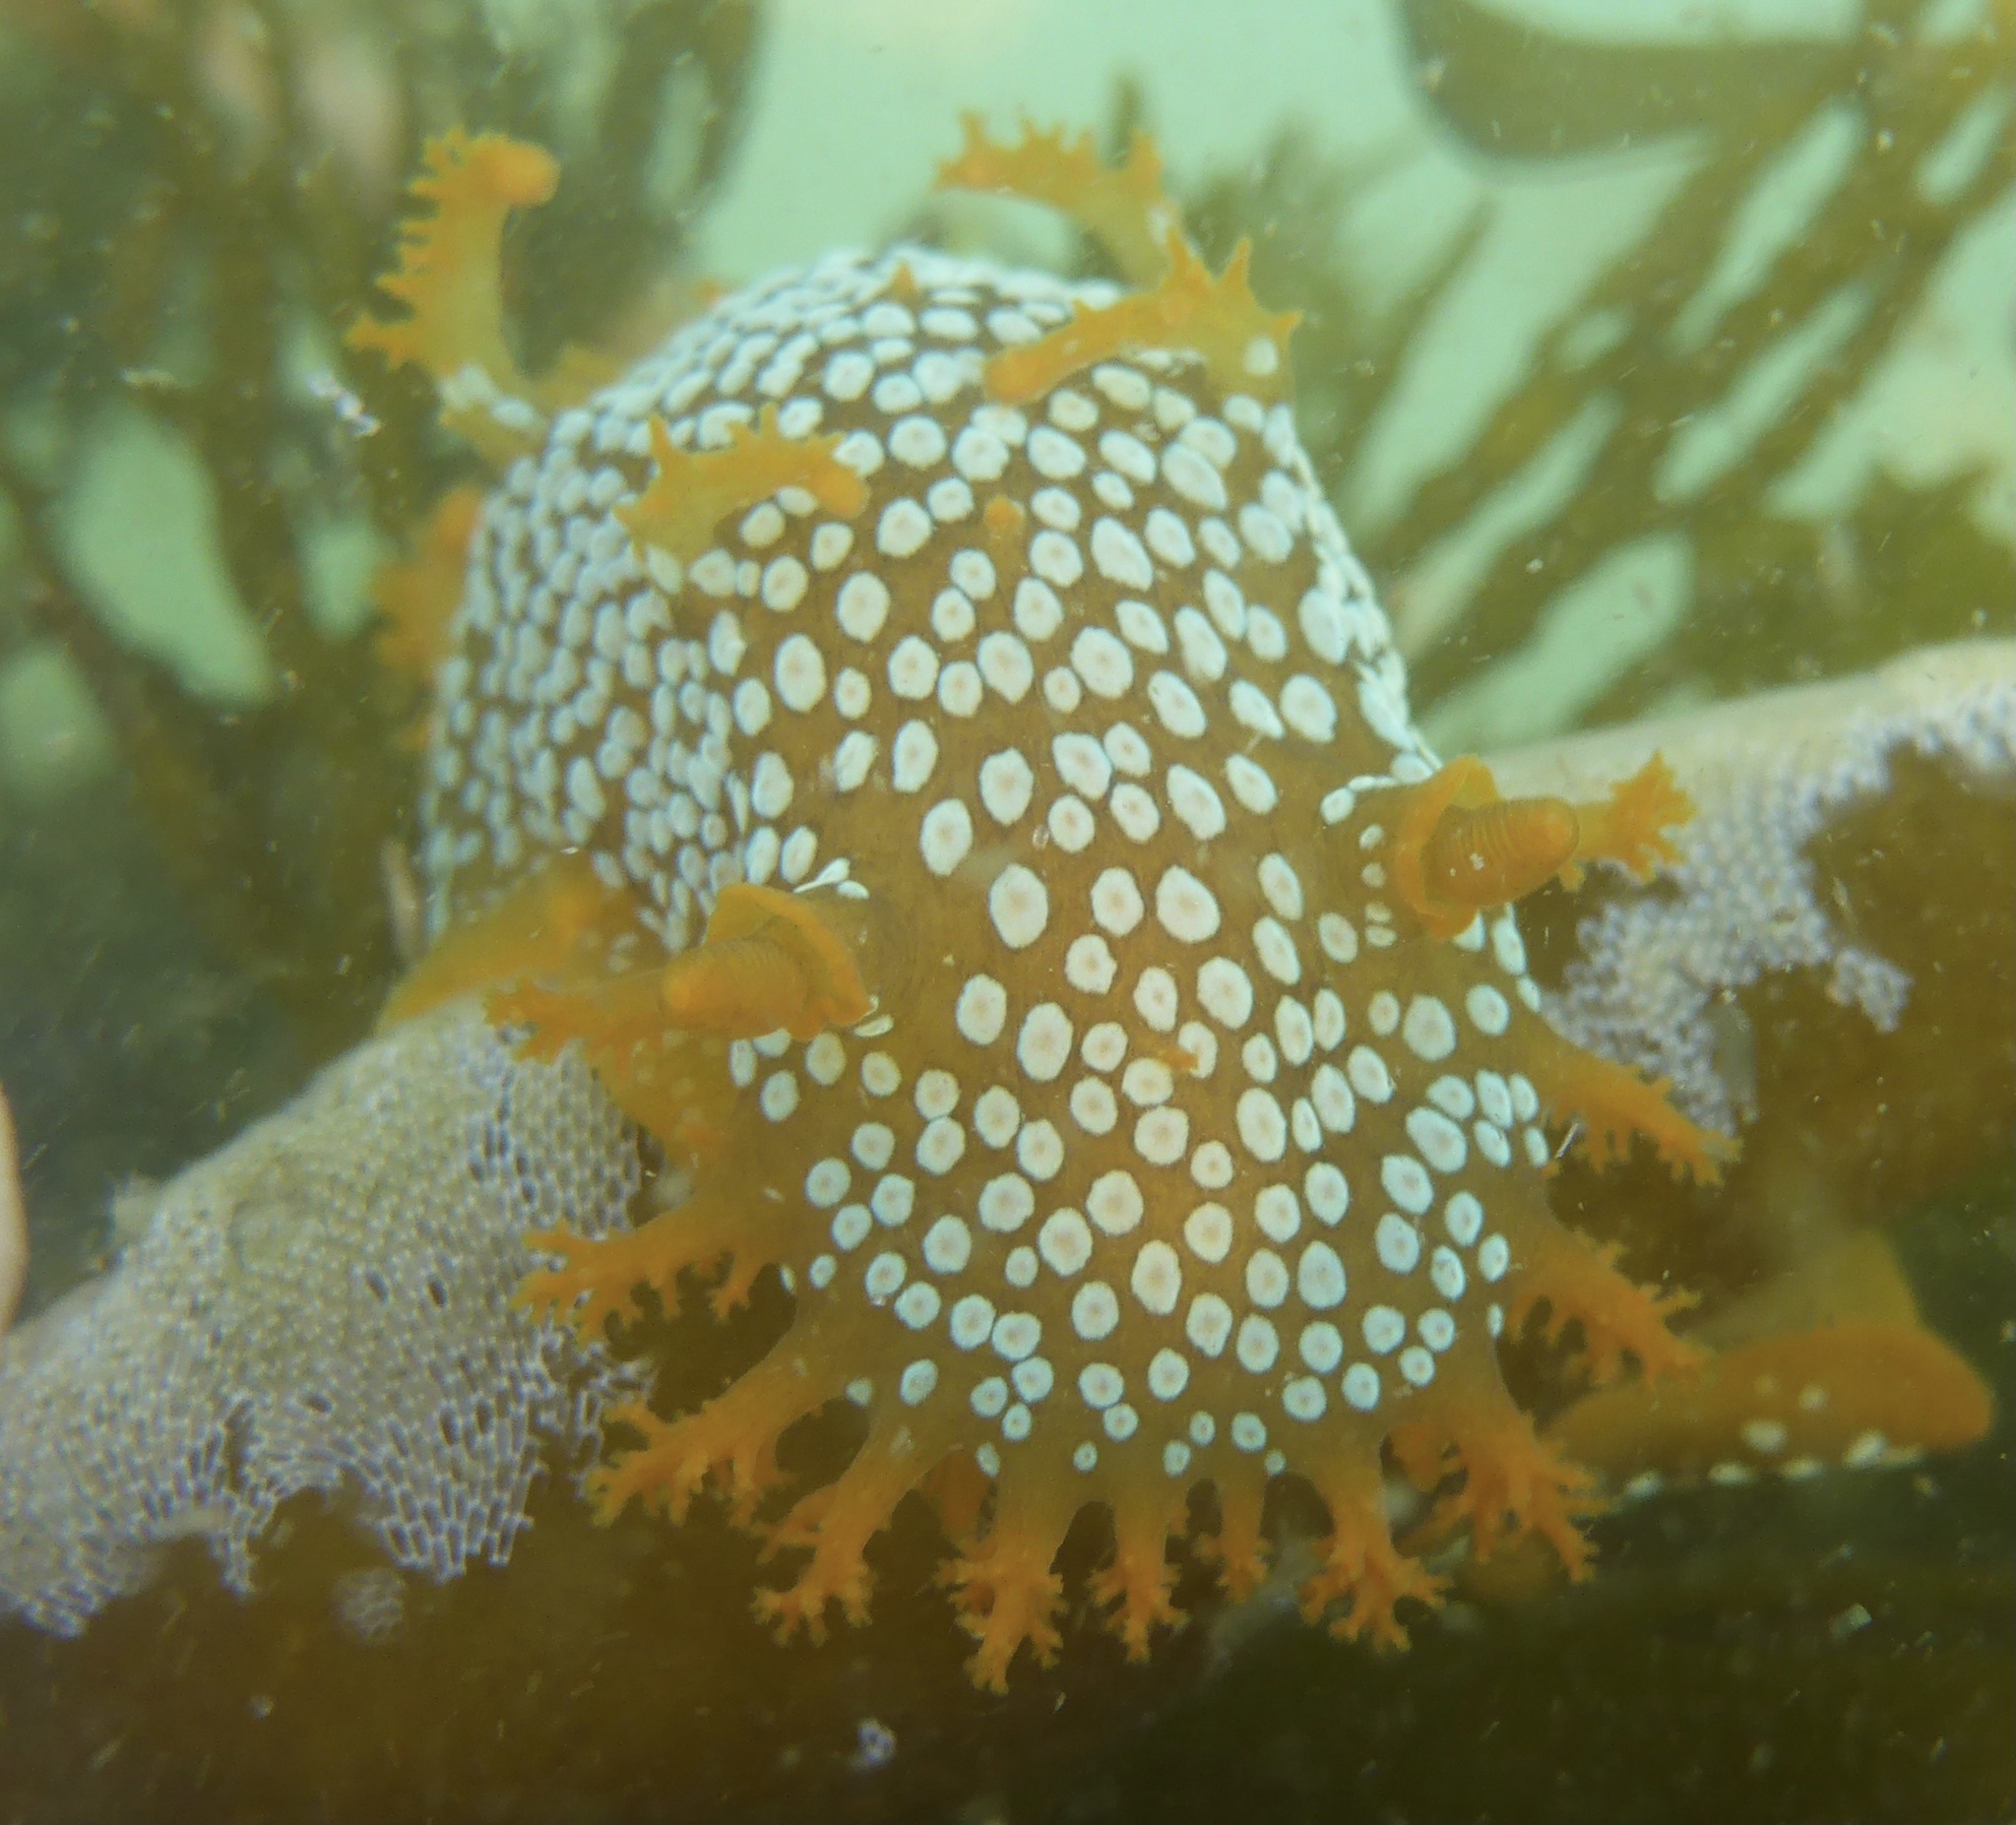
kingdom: Animalia
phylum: Mollusca
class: Gastropoda
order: Nudibranchia
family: Polyceridae
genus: Triopha
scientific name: Triopha maculata
